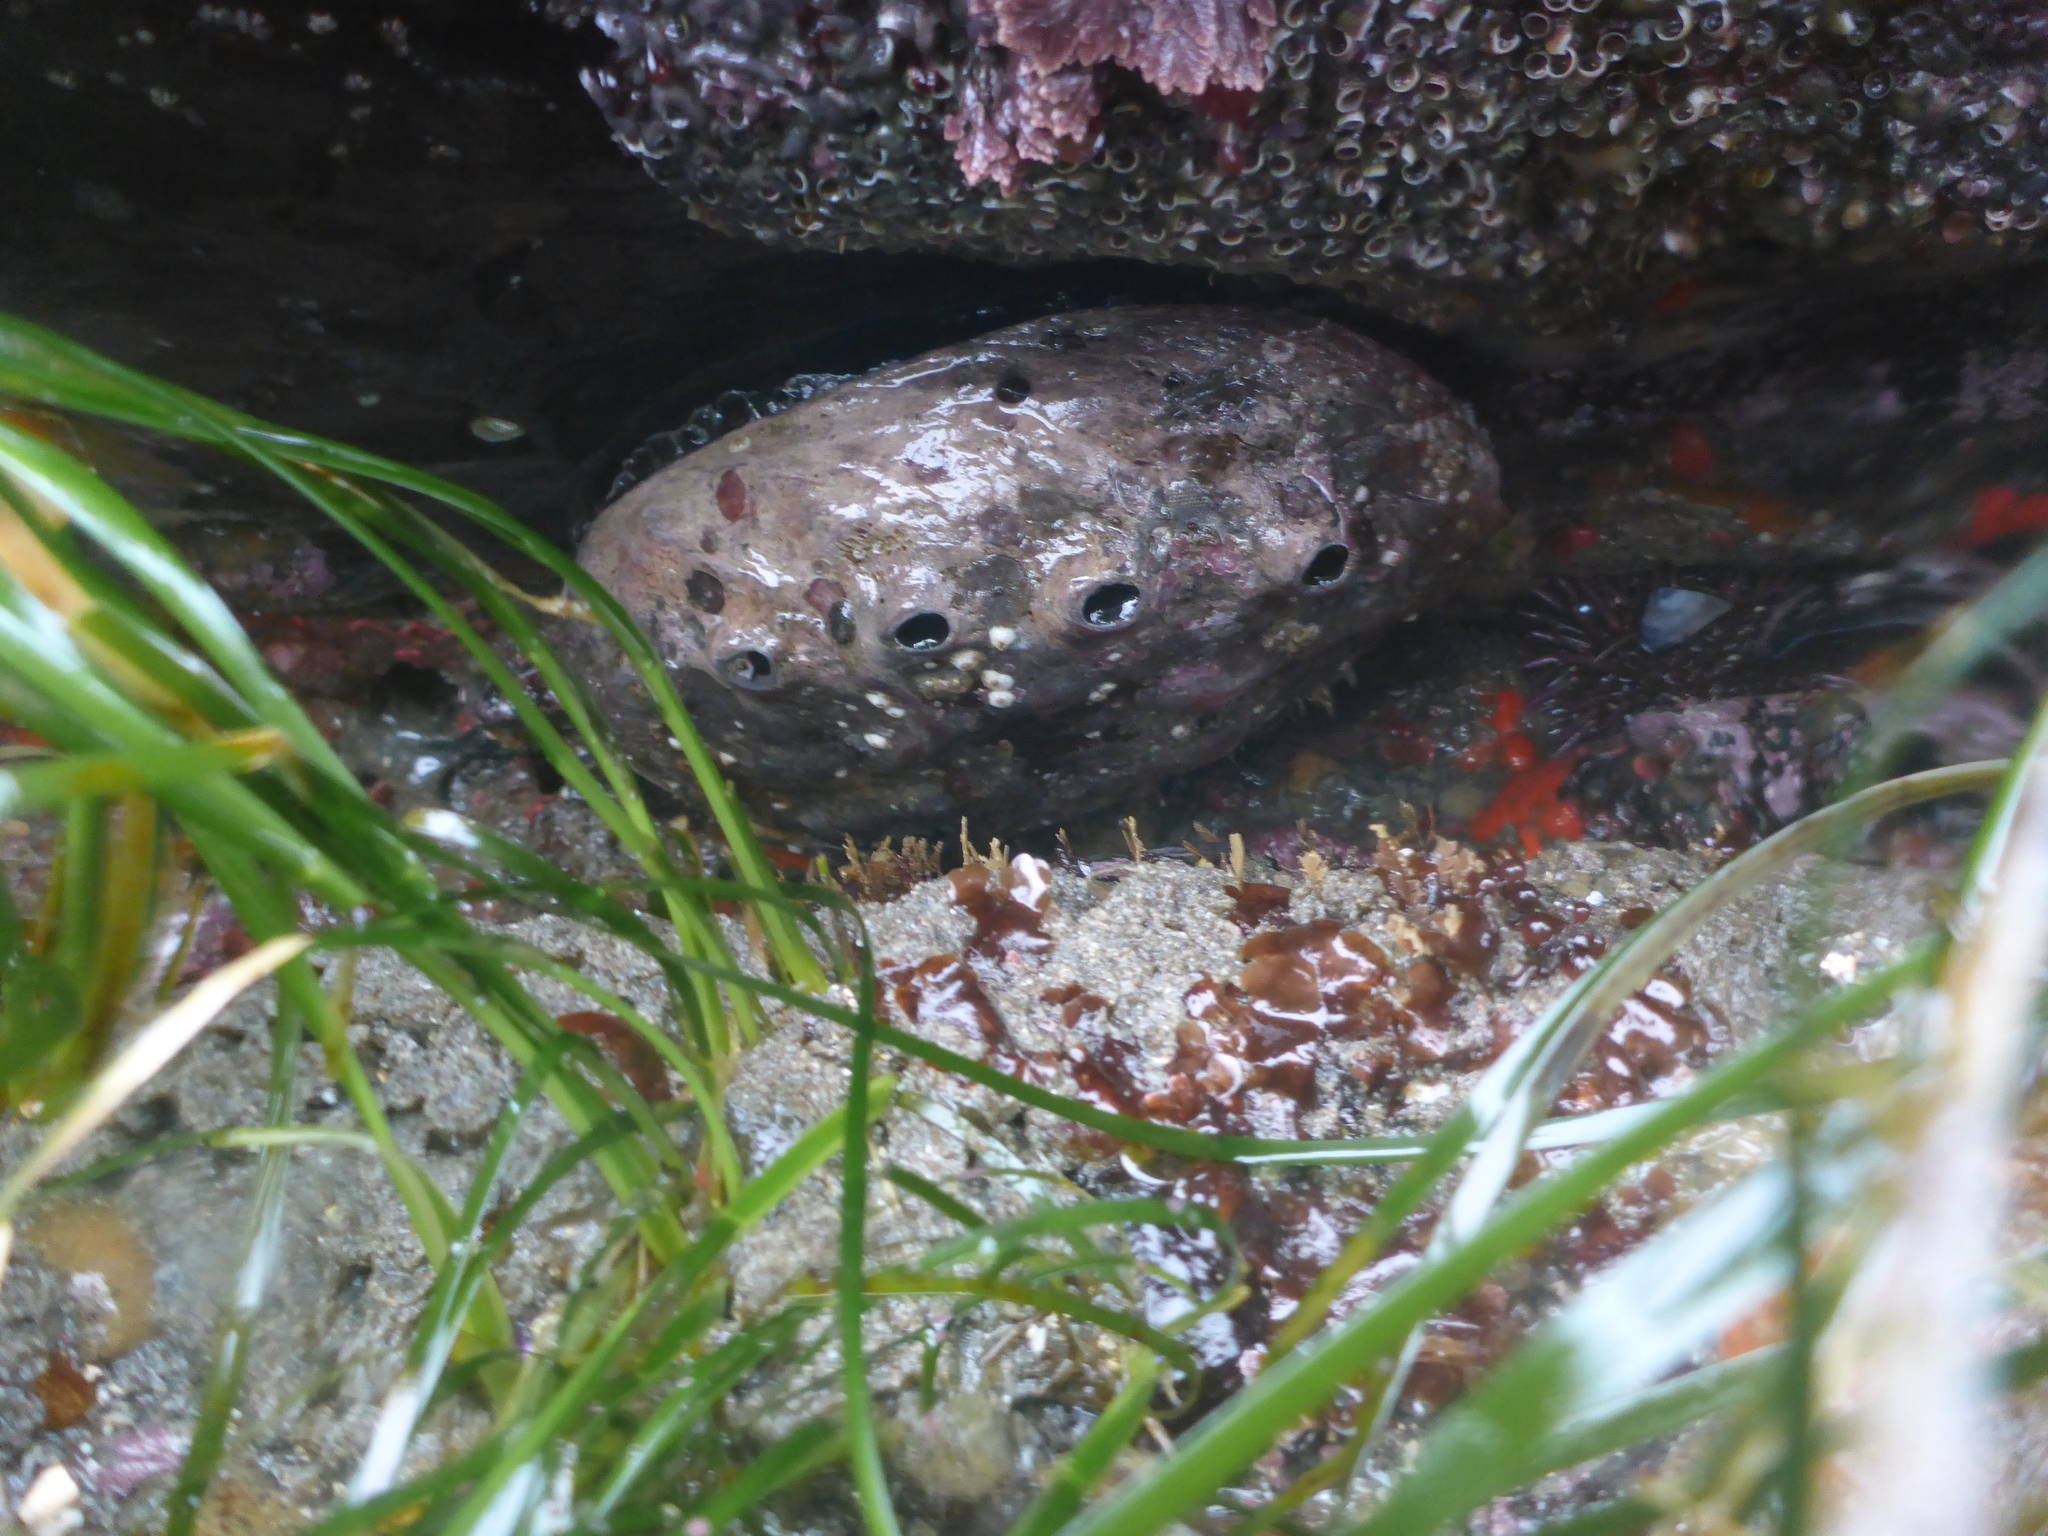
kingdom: Animalia
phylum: Mollusca
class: Gastropoda
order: Lepetellida
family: Haliotidae
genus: Haliotis
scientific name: Haliotis rufescens
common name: Red abalone
